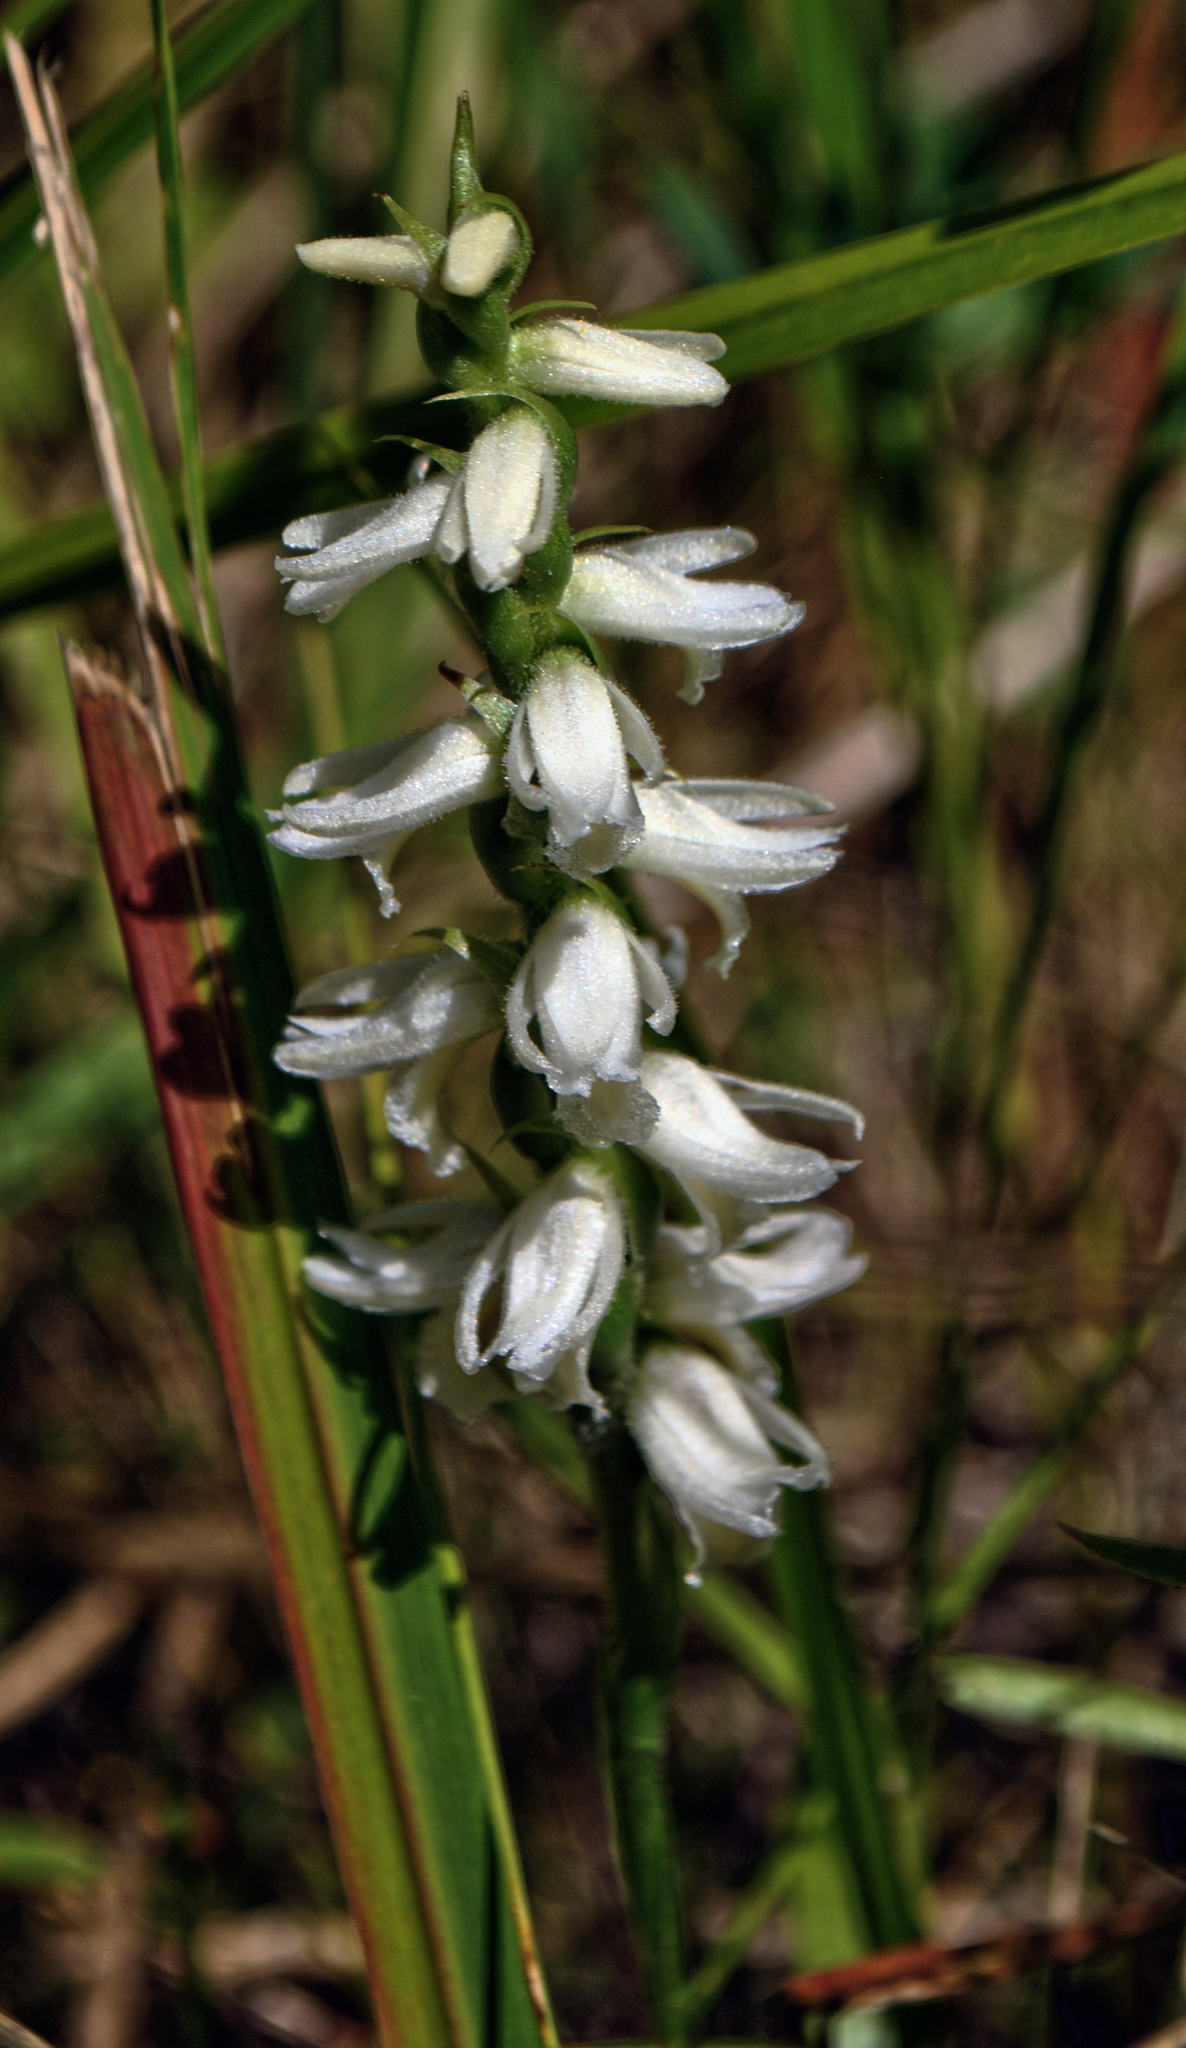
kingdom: Plantae
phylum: Tracheophyta
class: Liliopsida
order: Asparagales
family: Orchidaceae
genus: Spiranthes
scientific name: Spiranthes incurva
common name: Sphinx ladies'-tresses
